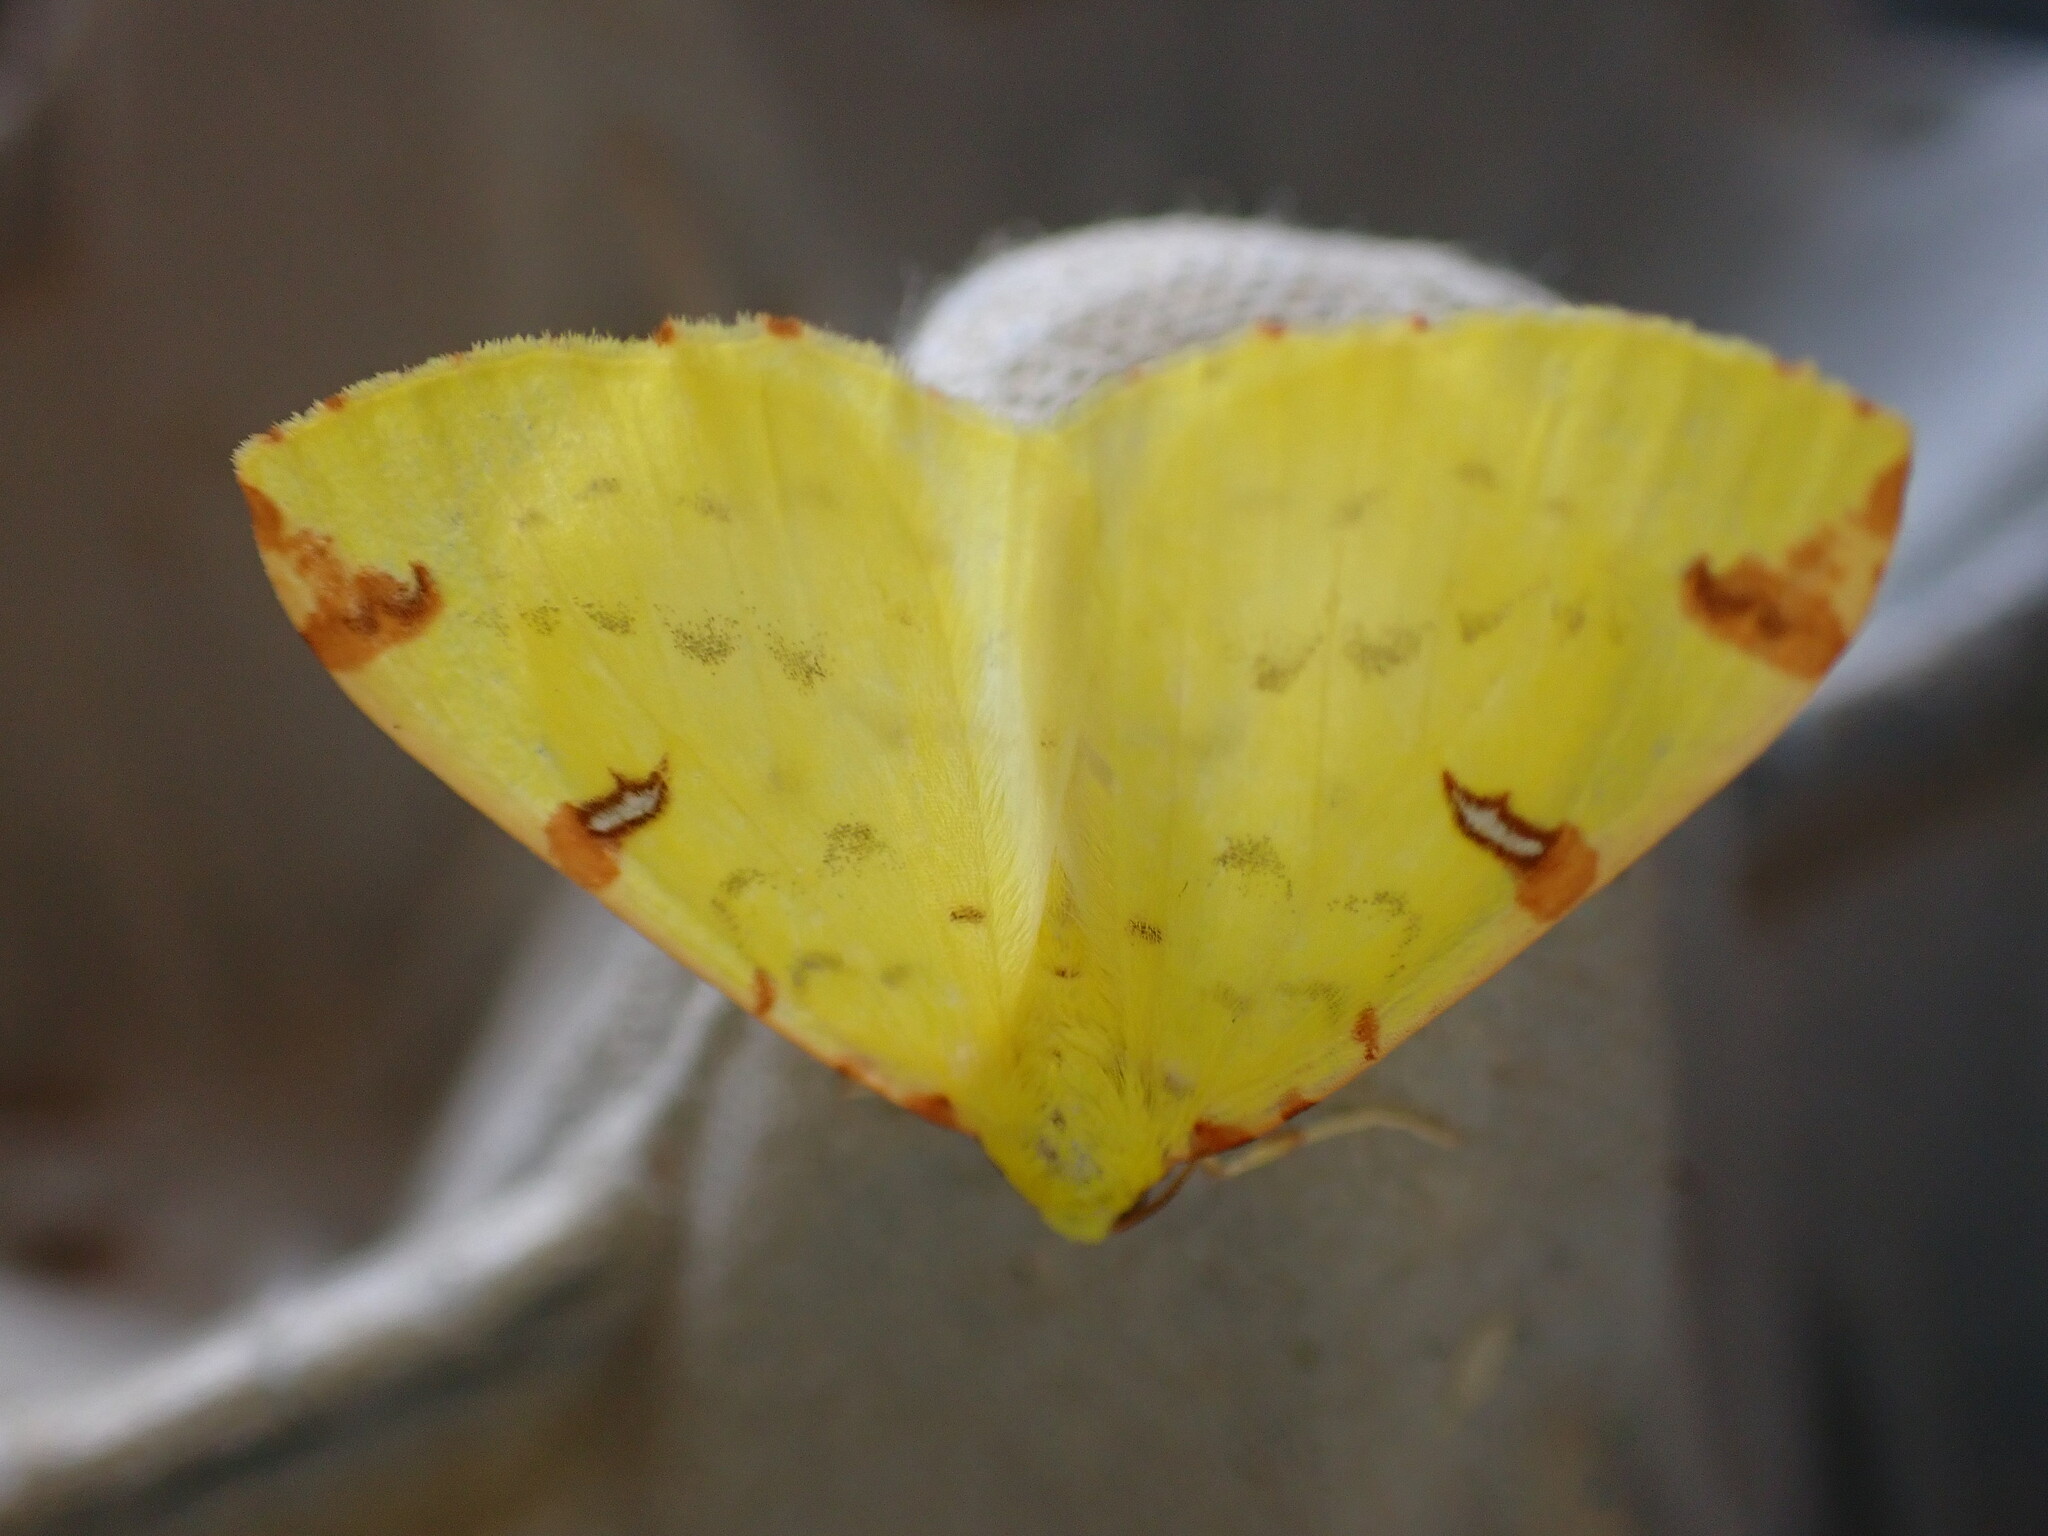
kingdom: Animalia
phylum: Arthropoda
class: Insecta
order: Lepidoptera
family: Geometridae
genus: Opisthograptis
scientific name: Opisthograptis luteolata
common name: Brimstone moth
